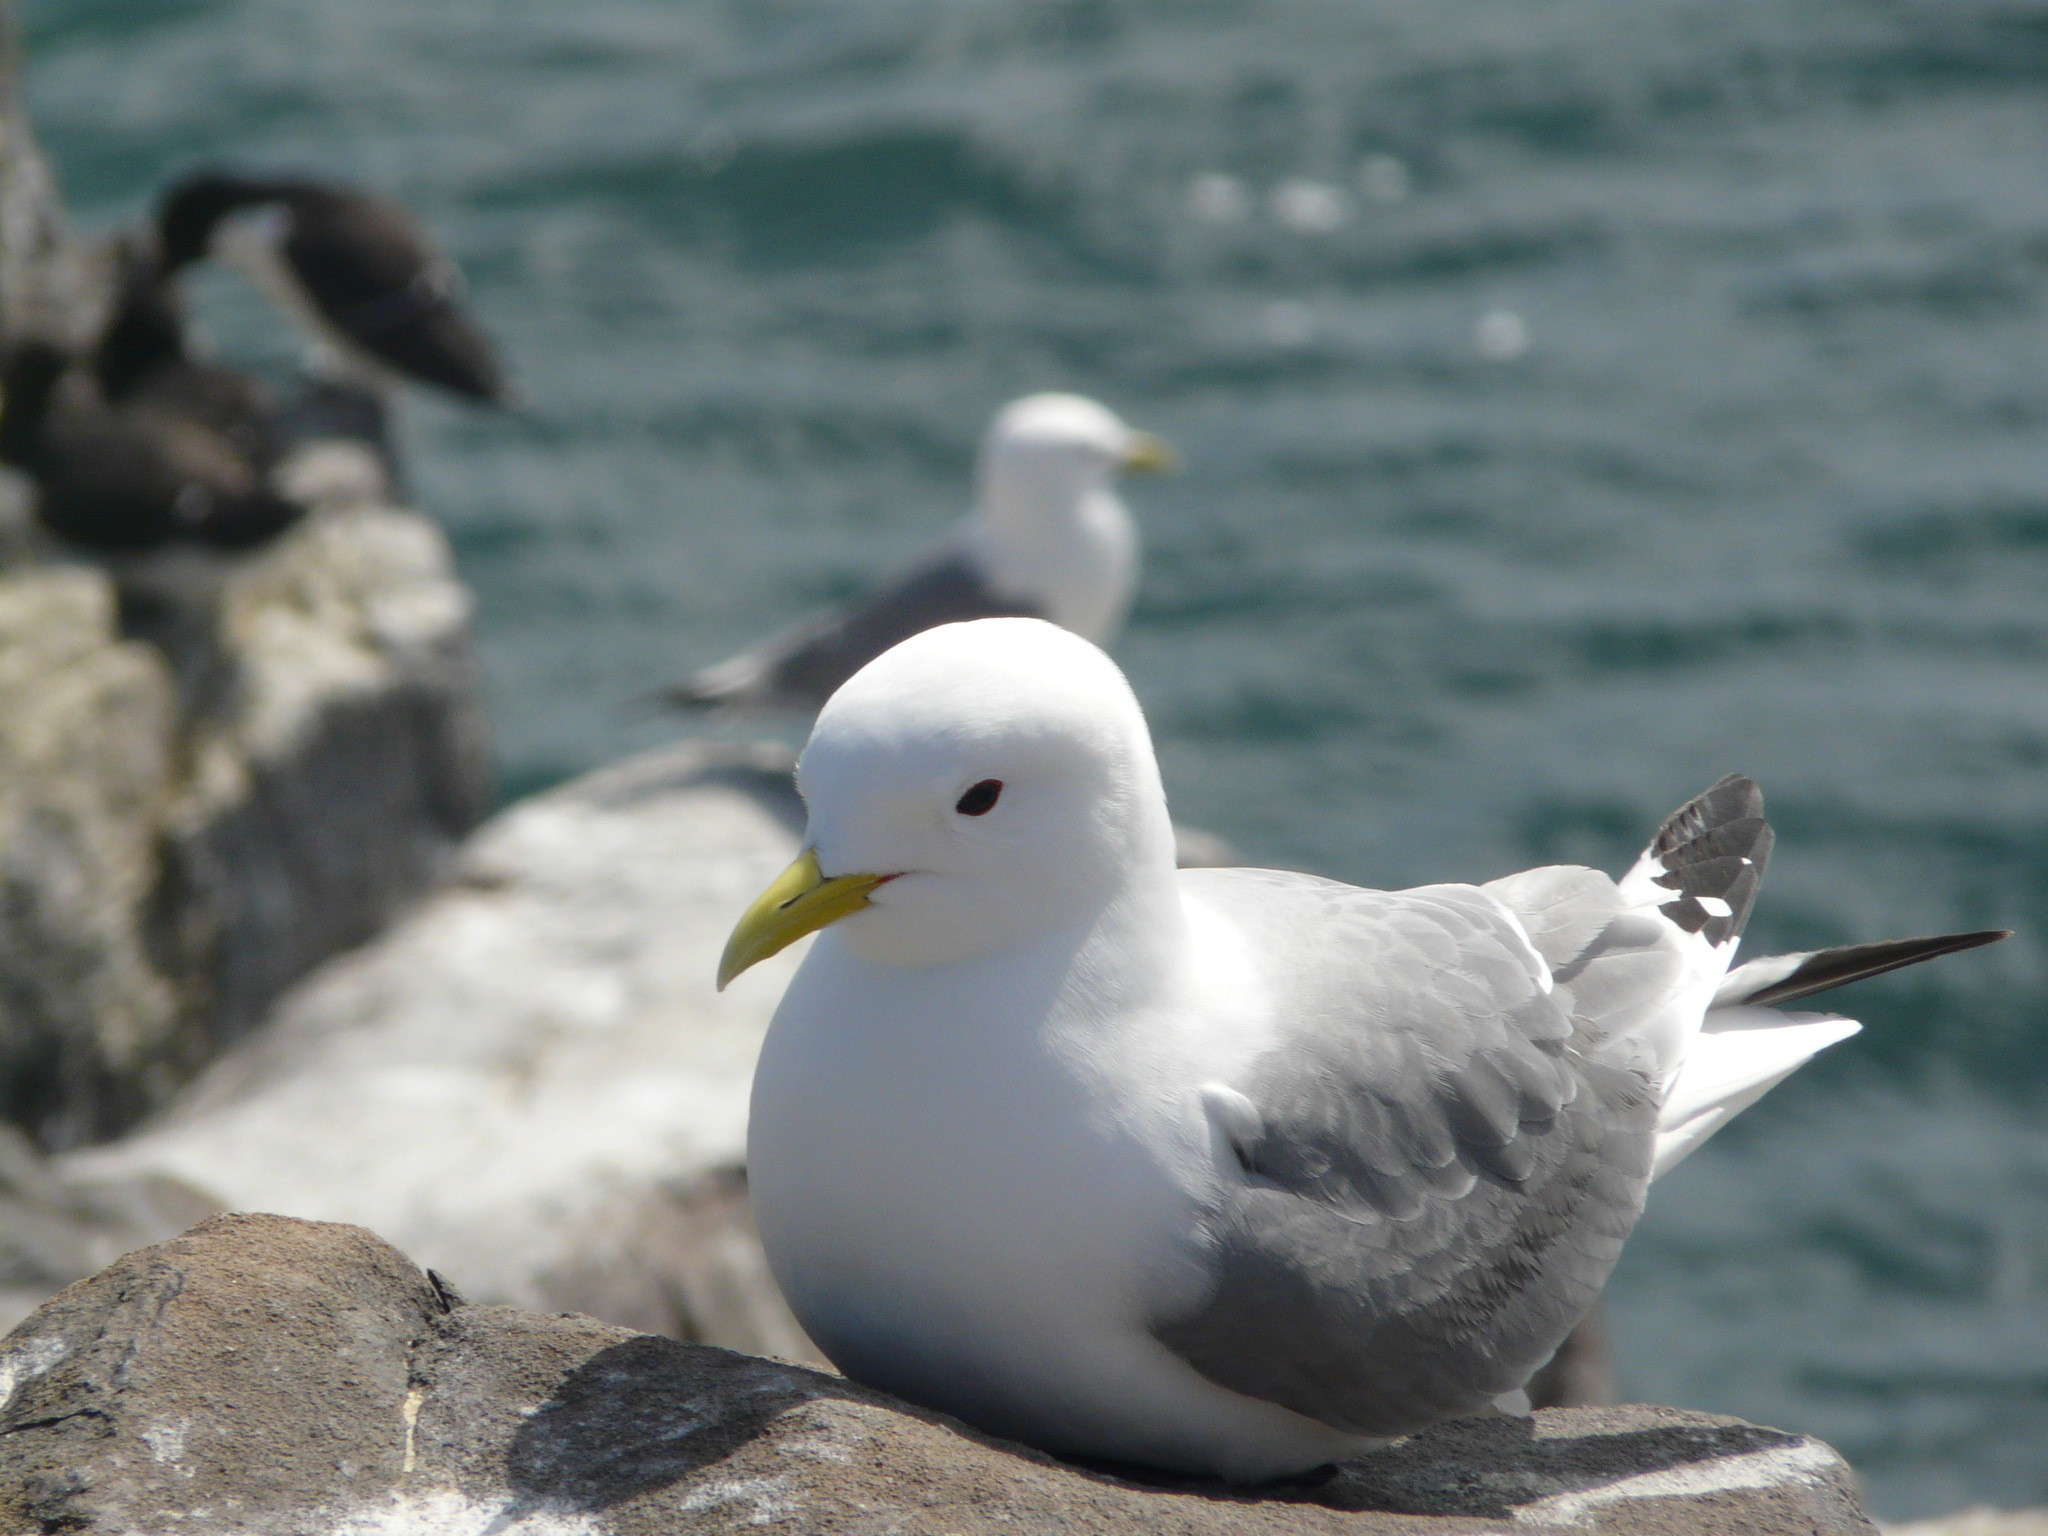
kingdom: Animalia
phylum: Chordata
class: Aves
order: Charadriiformes
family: Laridae
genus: Rissa
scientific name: Rissa tridactyla
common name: Black-legged kittiwake
